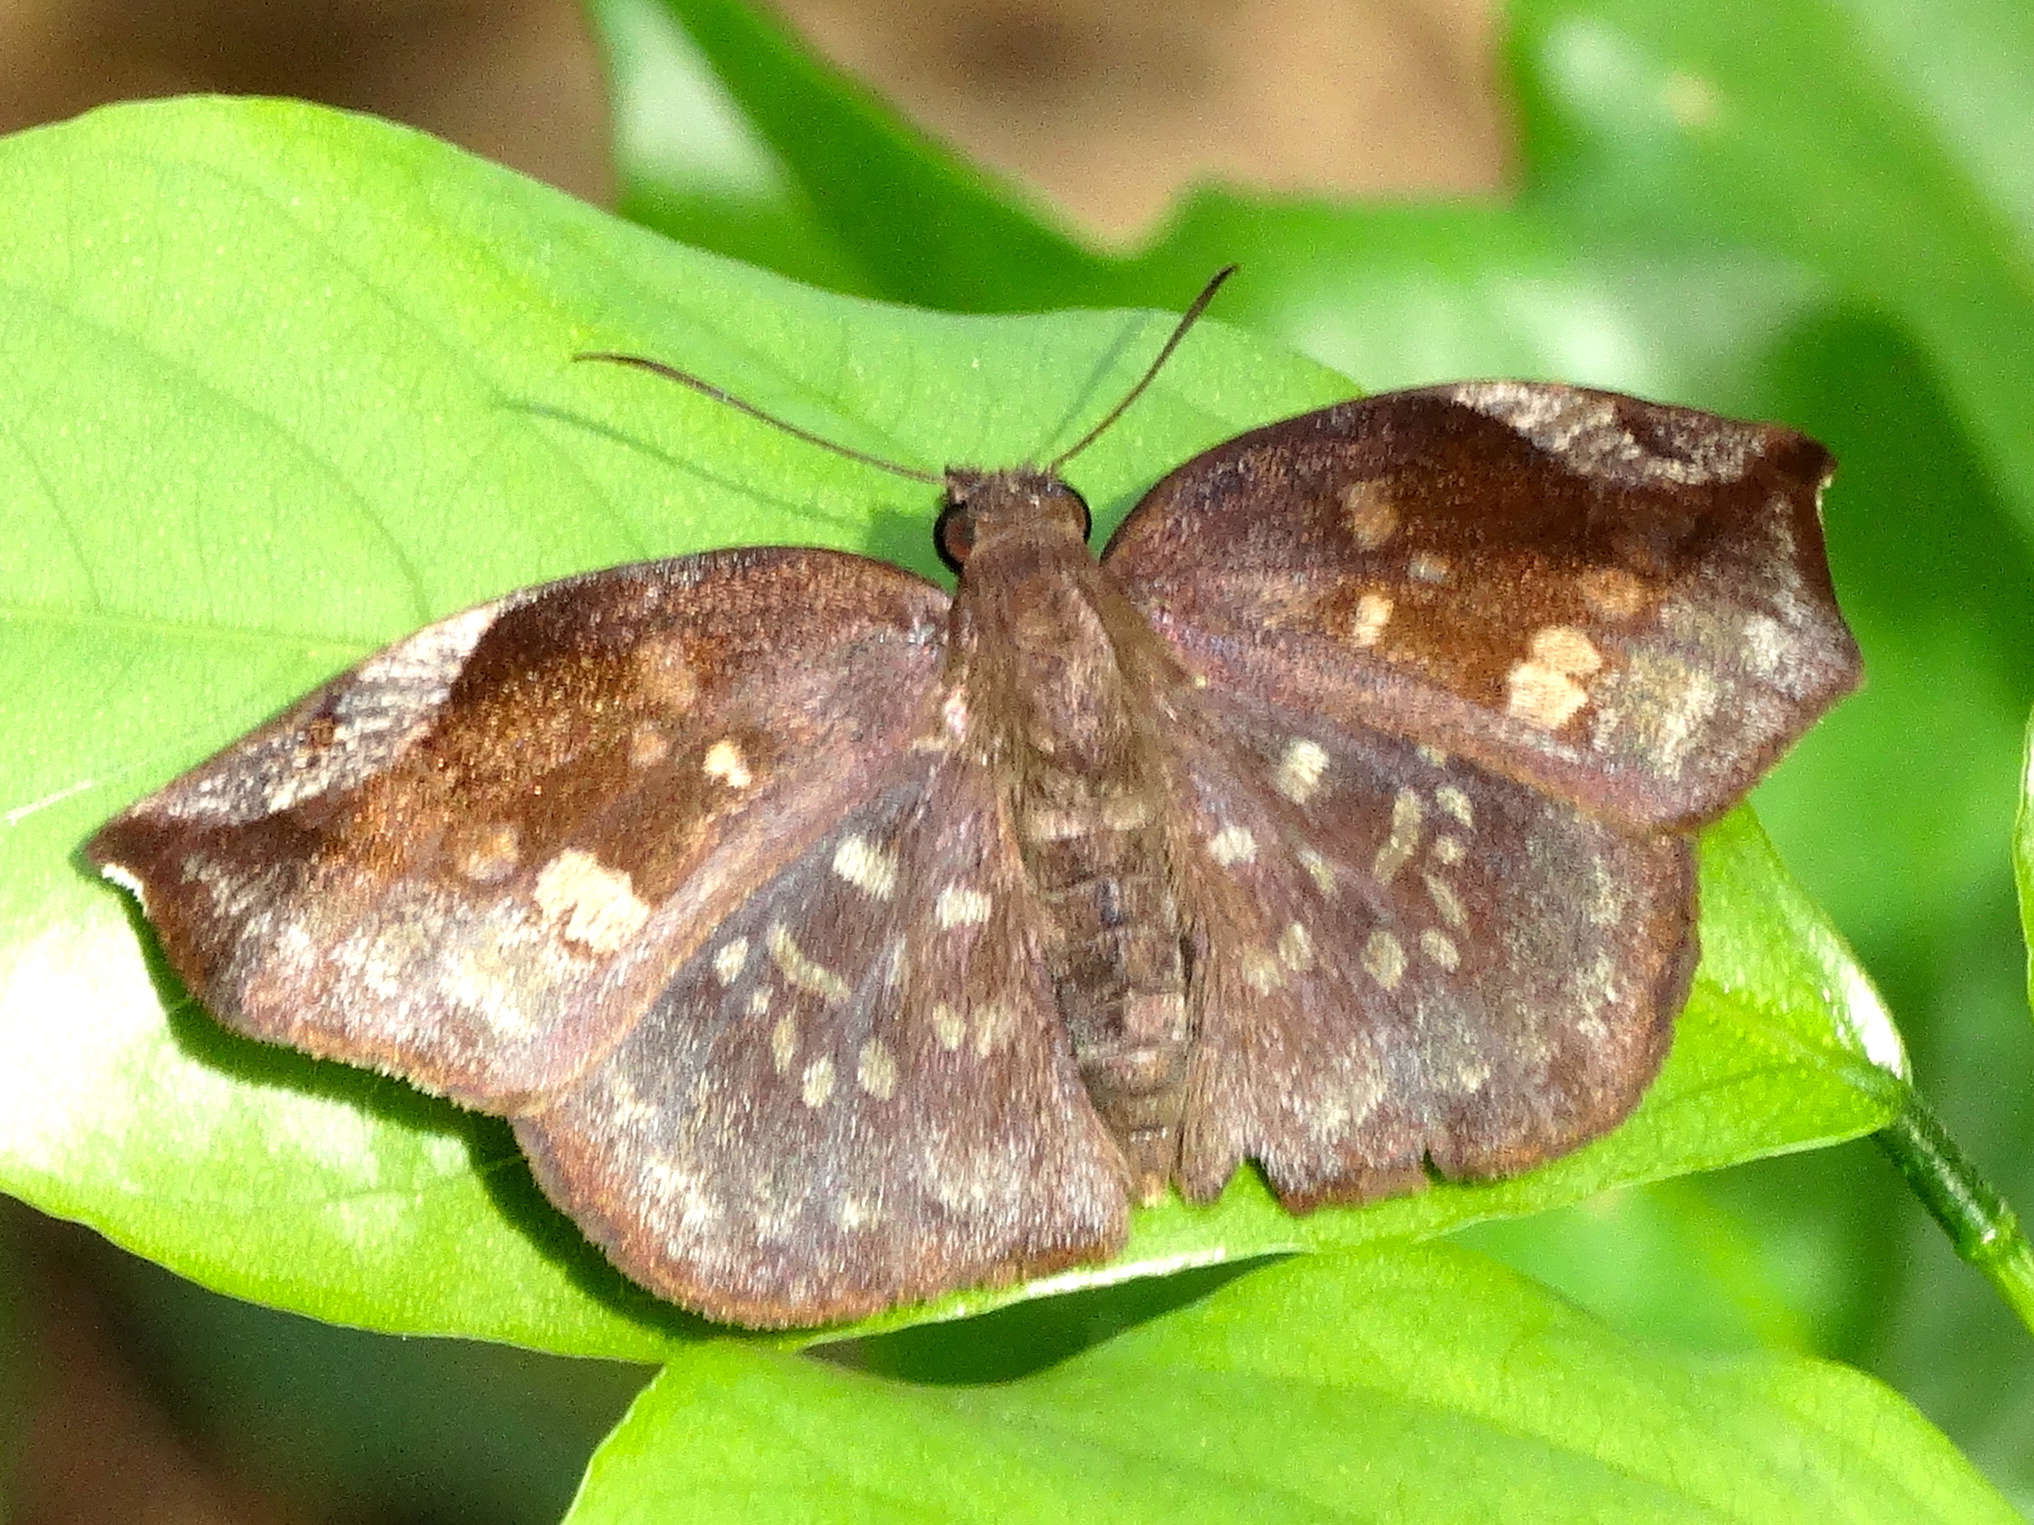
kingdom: Animalia
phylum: Arthropoda
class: Insecta
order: Lepidoptera
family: Hesperiidae
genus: Achlyodes
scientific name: Achlyodes thraso
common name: Sickle-winged skipper
